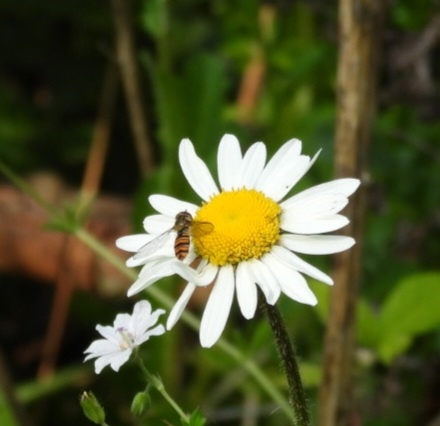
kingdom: Animalia
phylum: Arthropoda
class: Insecta
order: Diptera
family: Syrphidae
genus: Episyrphus
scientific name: Episyrphus balteatus
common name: Marmalade hoverfly
